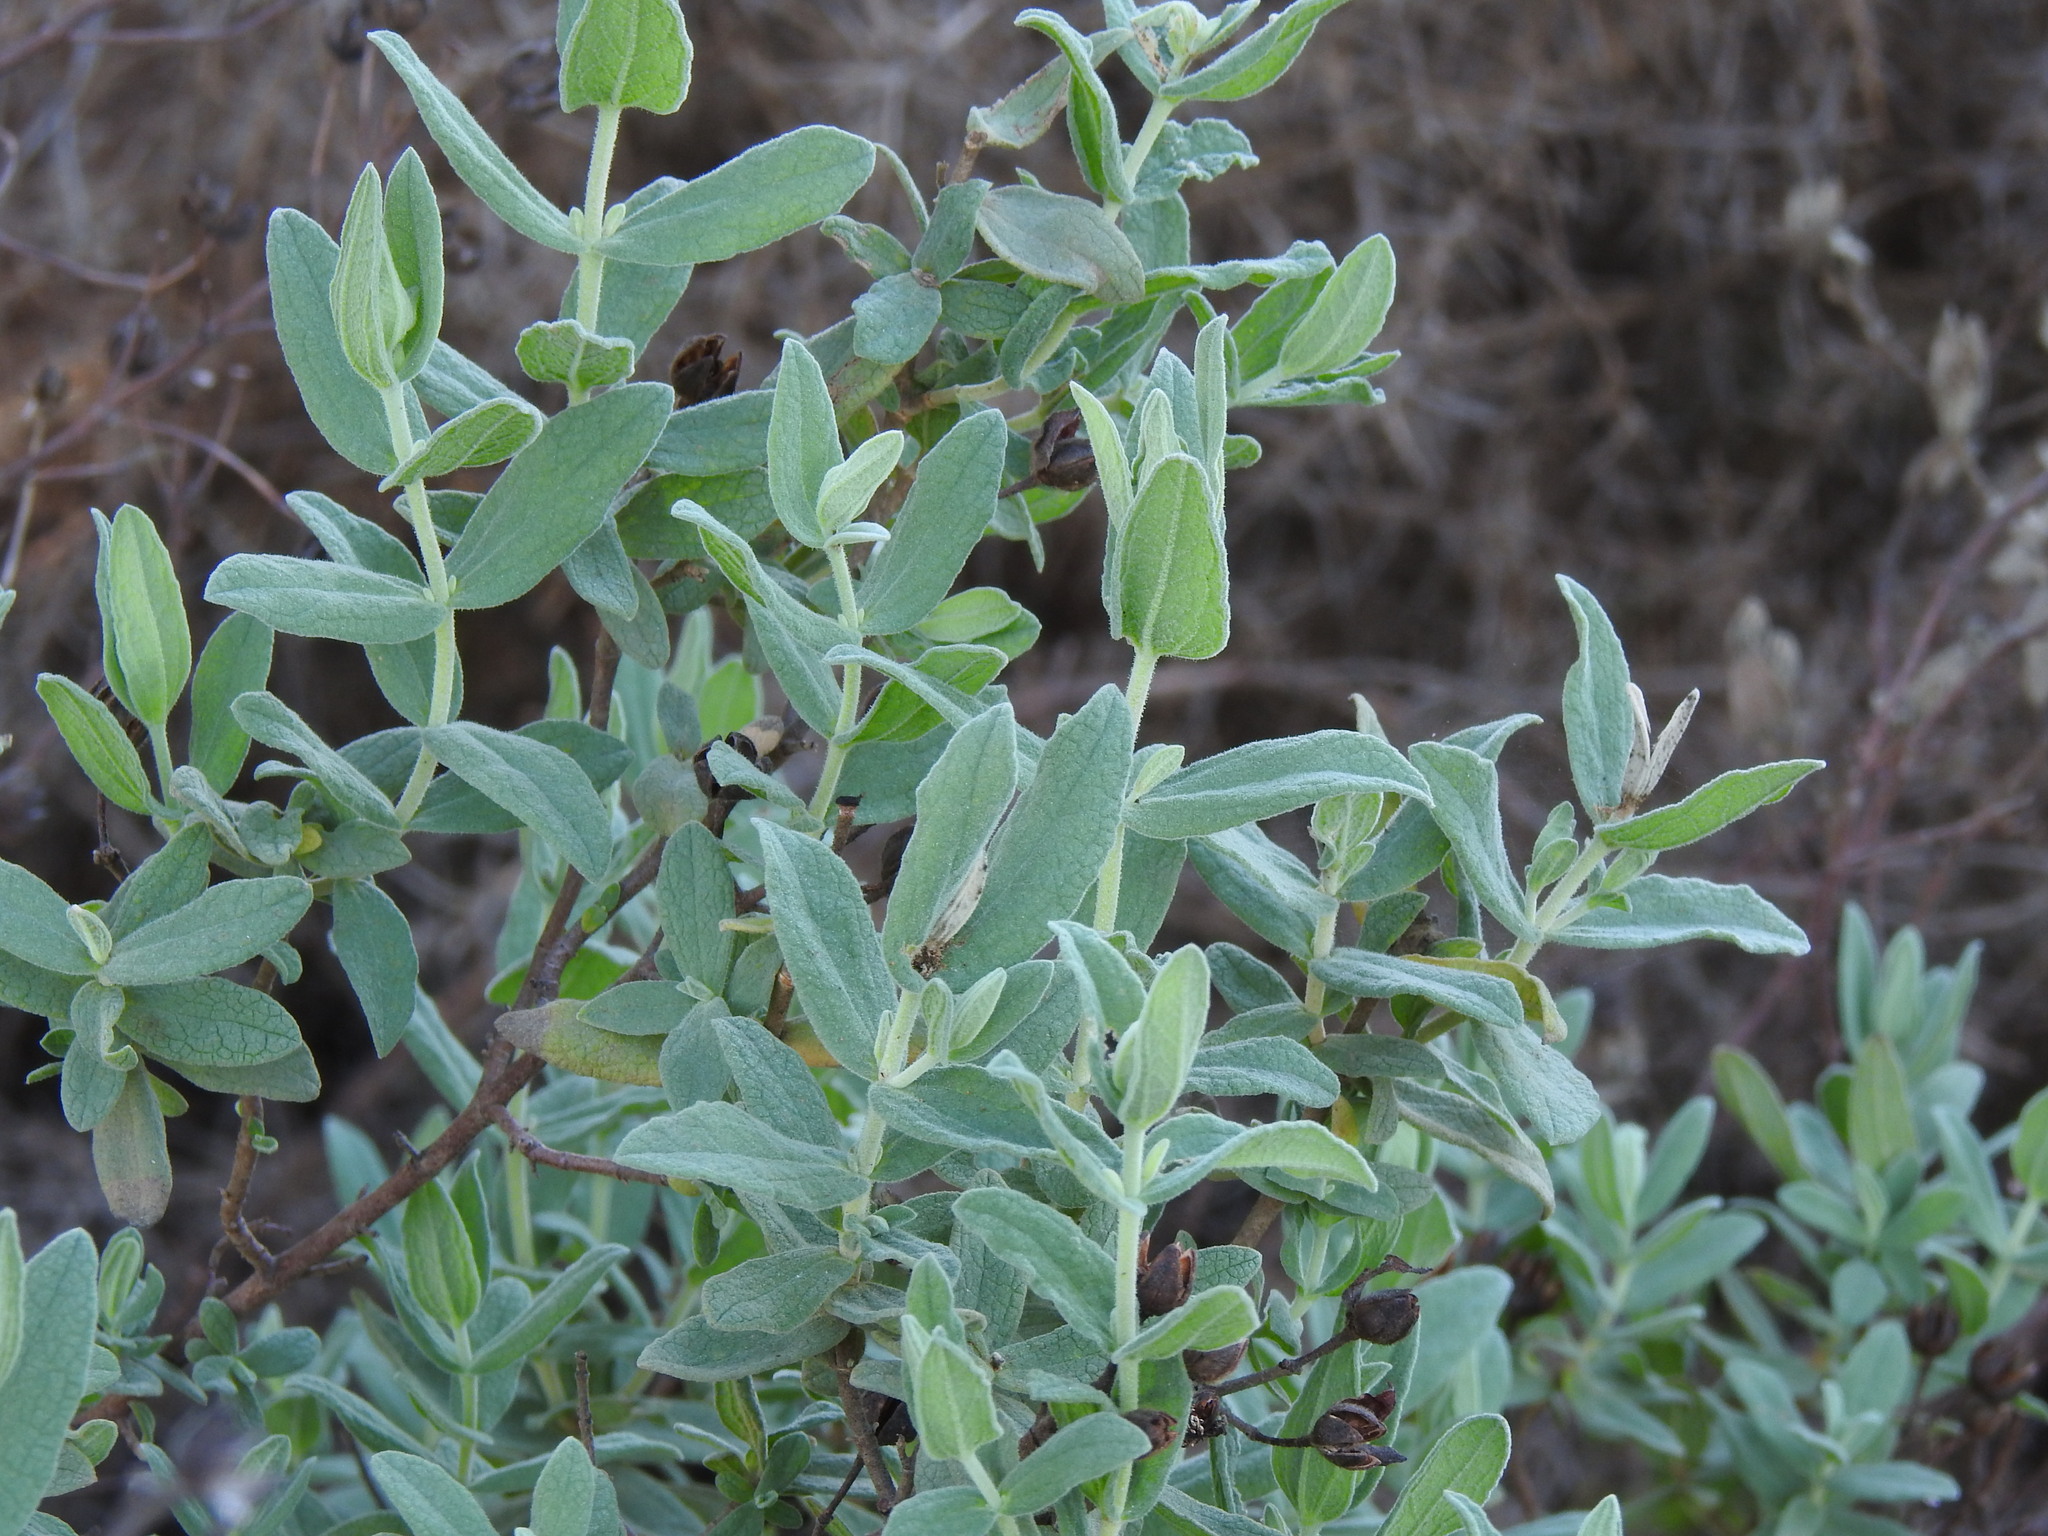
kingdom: Plantae
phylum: Tracheophyta
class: Magnoliopsida
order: Malvales
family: Cistaceae
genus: Cistus
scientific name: Cistus albidus
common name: White-leaf rock-rose
